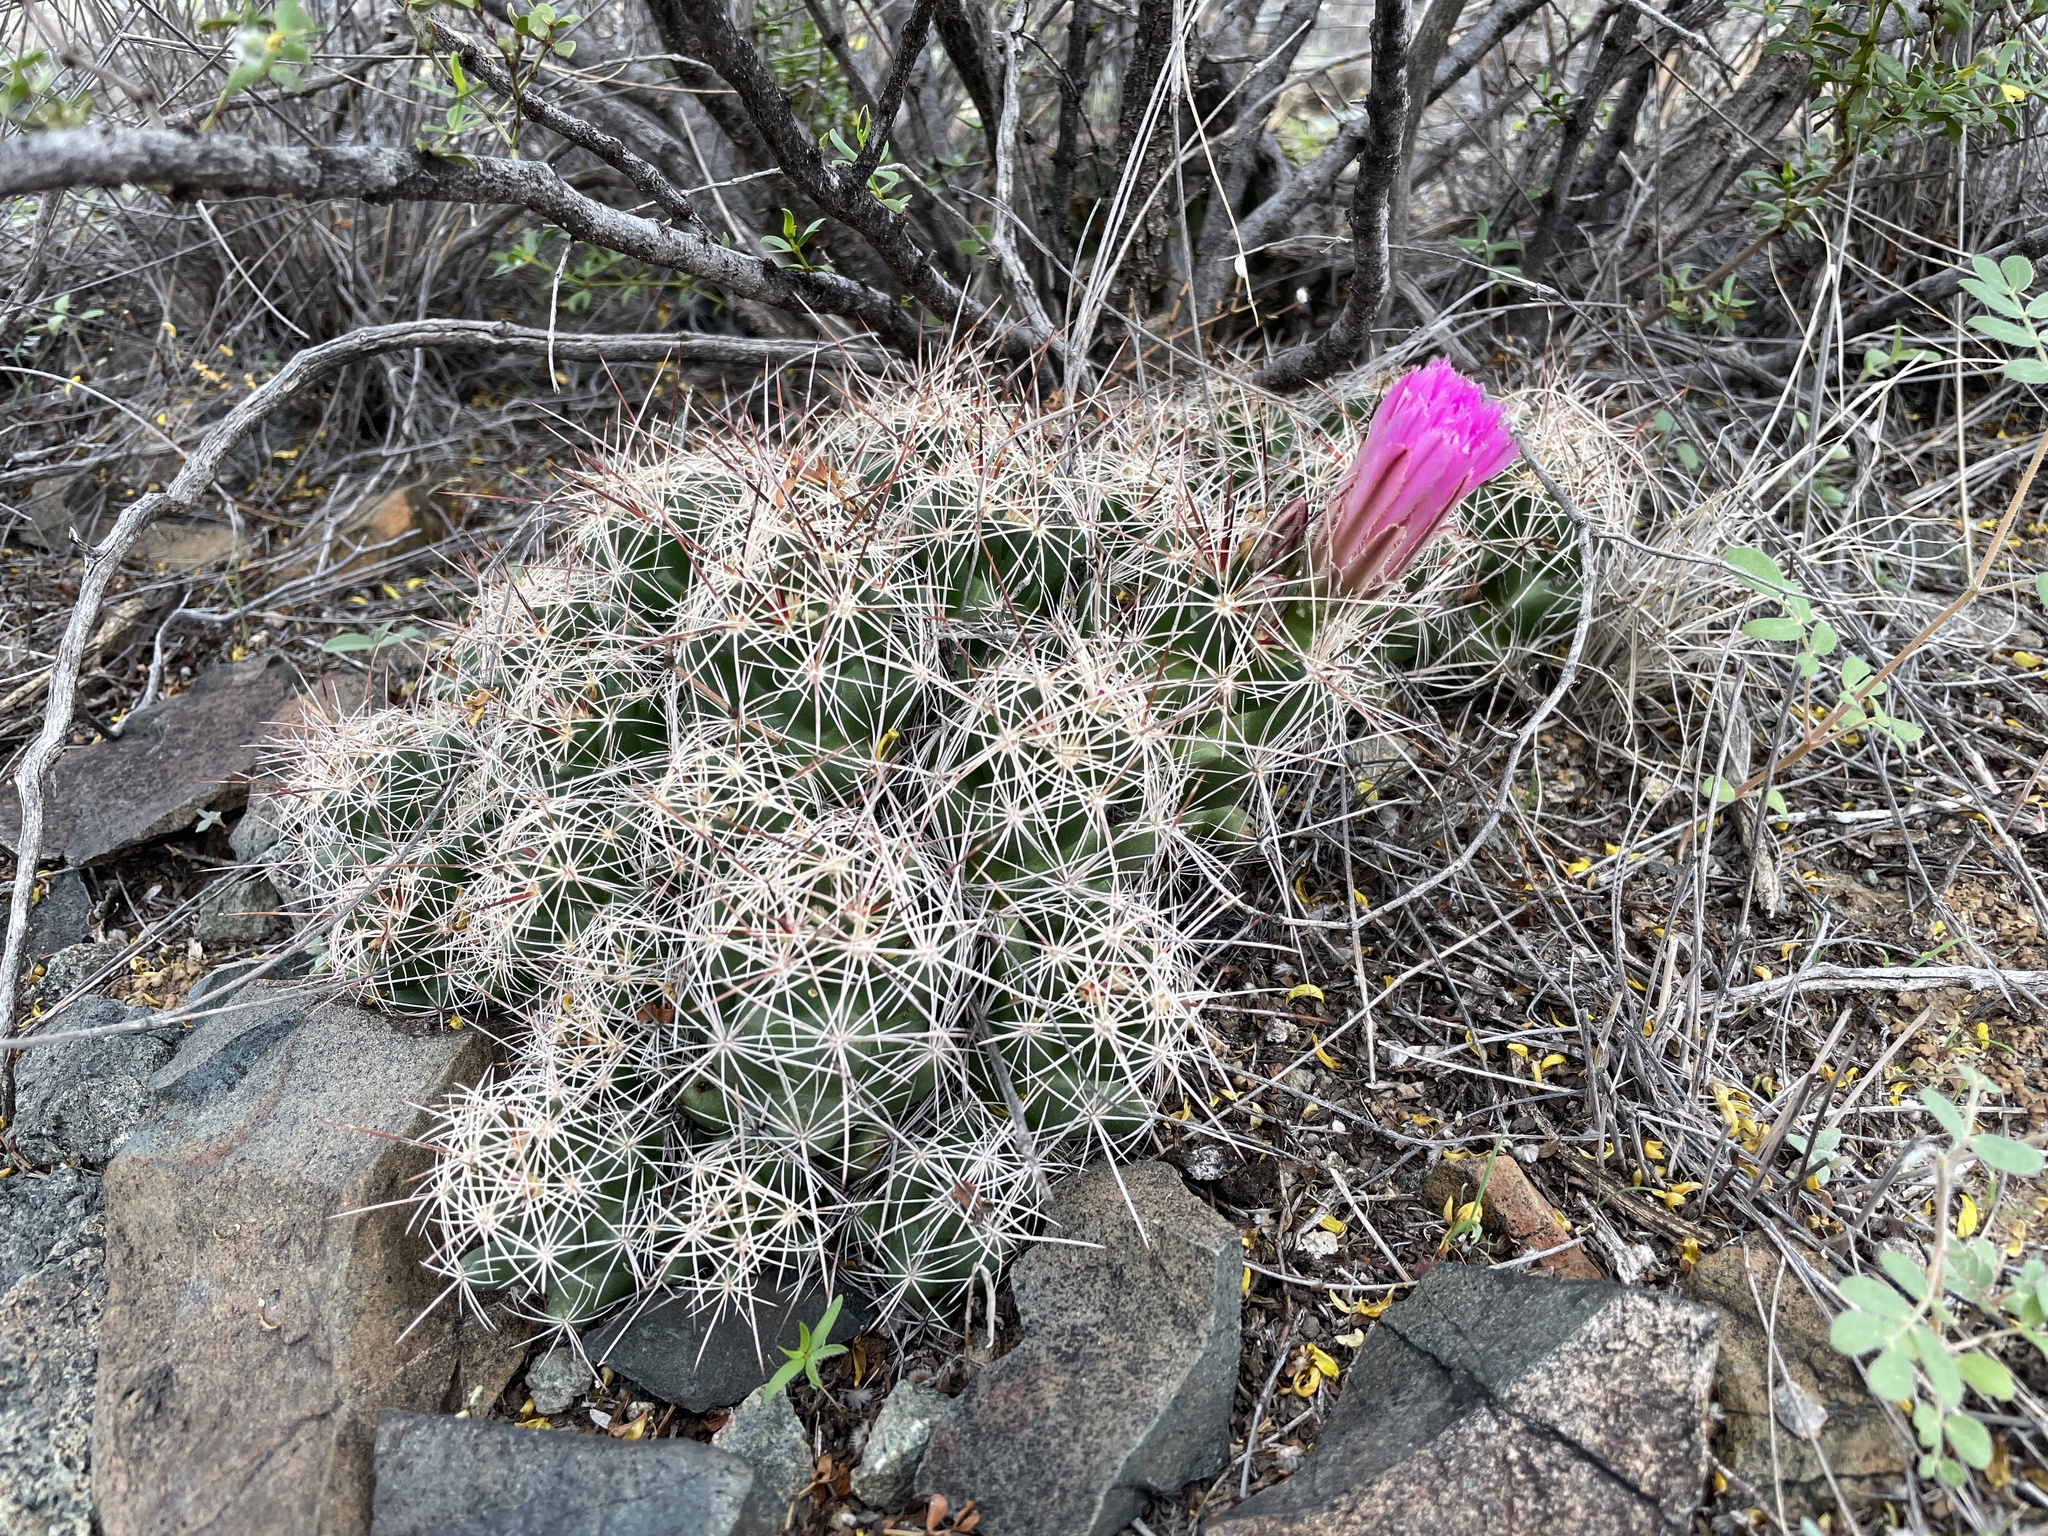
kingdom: Plantae
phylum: Tracheophyta
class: Magnoliopsida
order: Caryophyllales
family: Cactaceae
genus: Coryphantha
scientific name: Coryphantha macromeris
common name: Nipple beehive cactus
